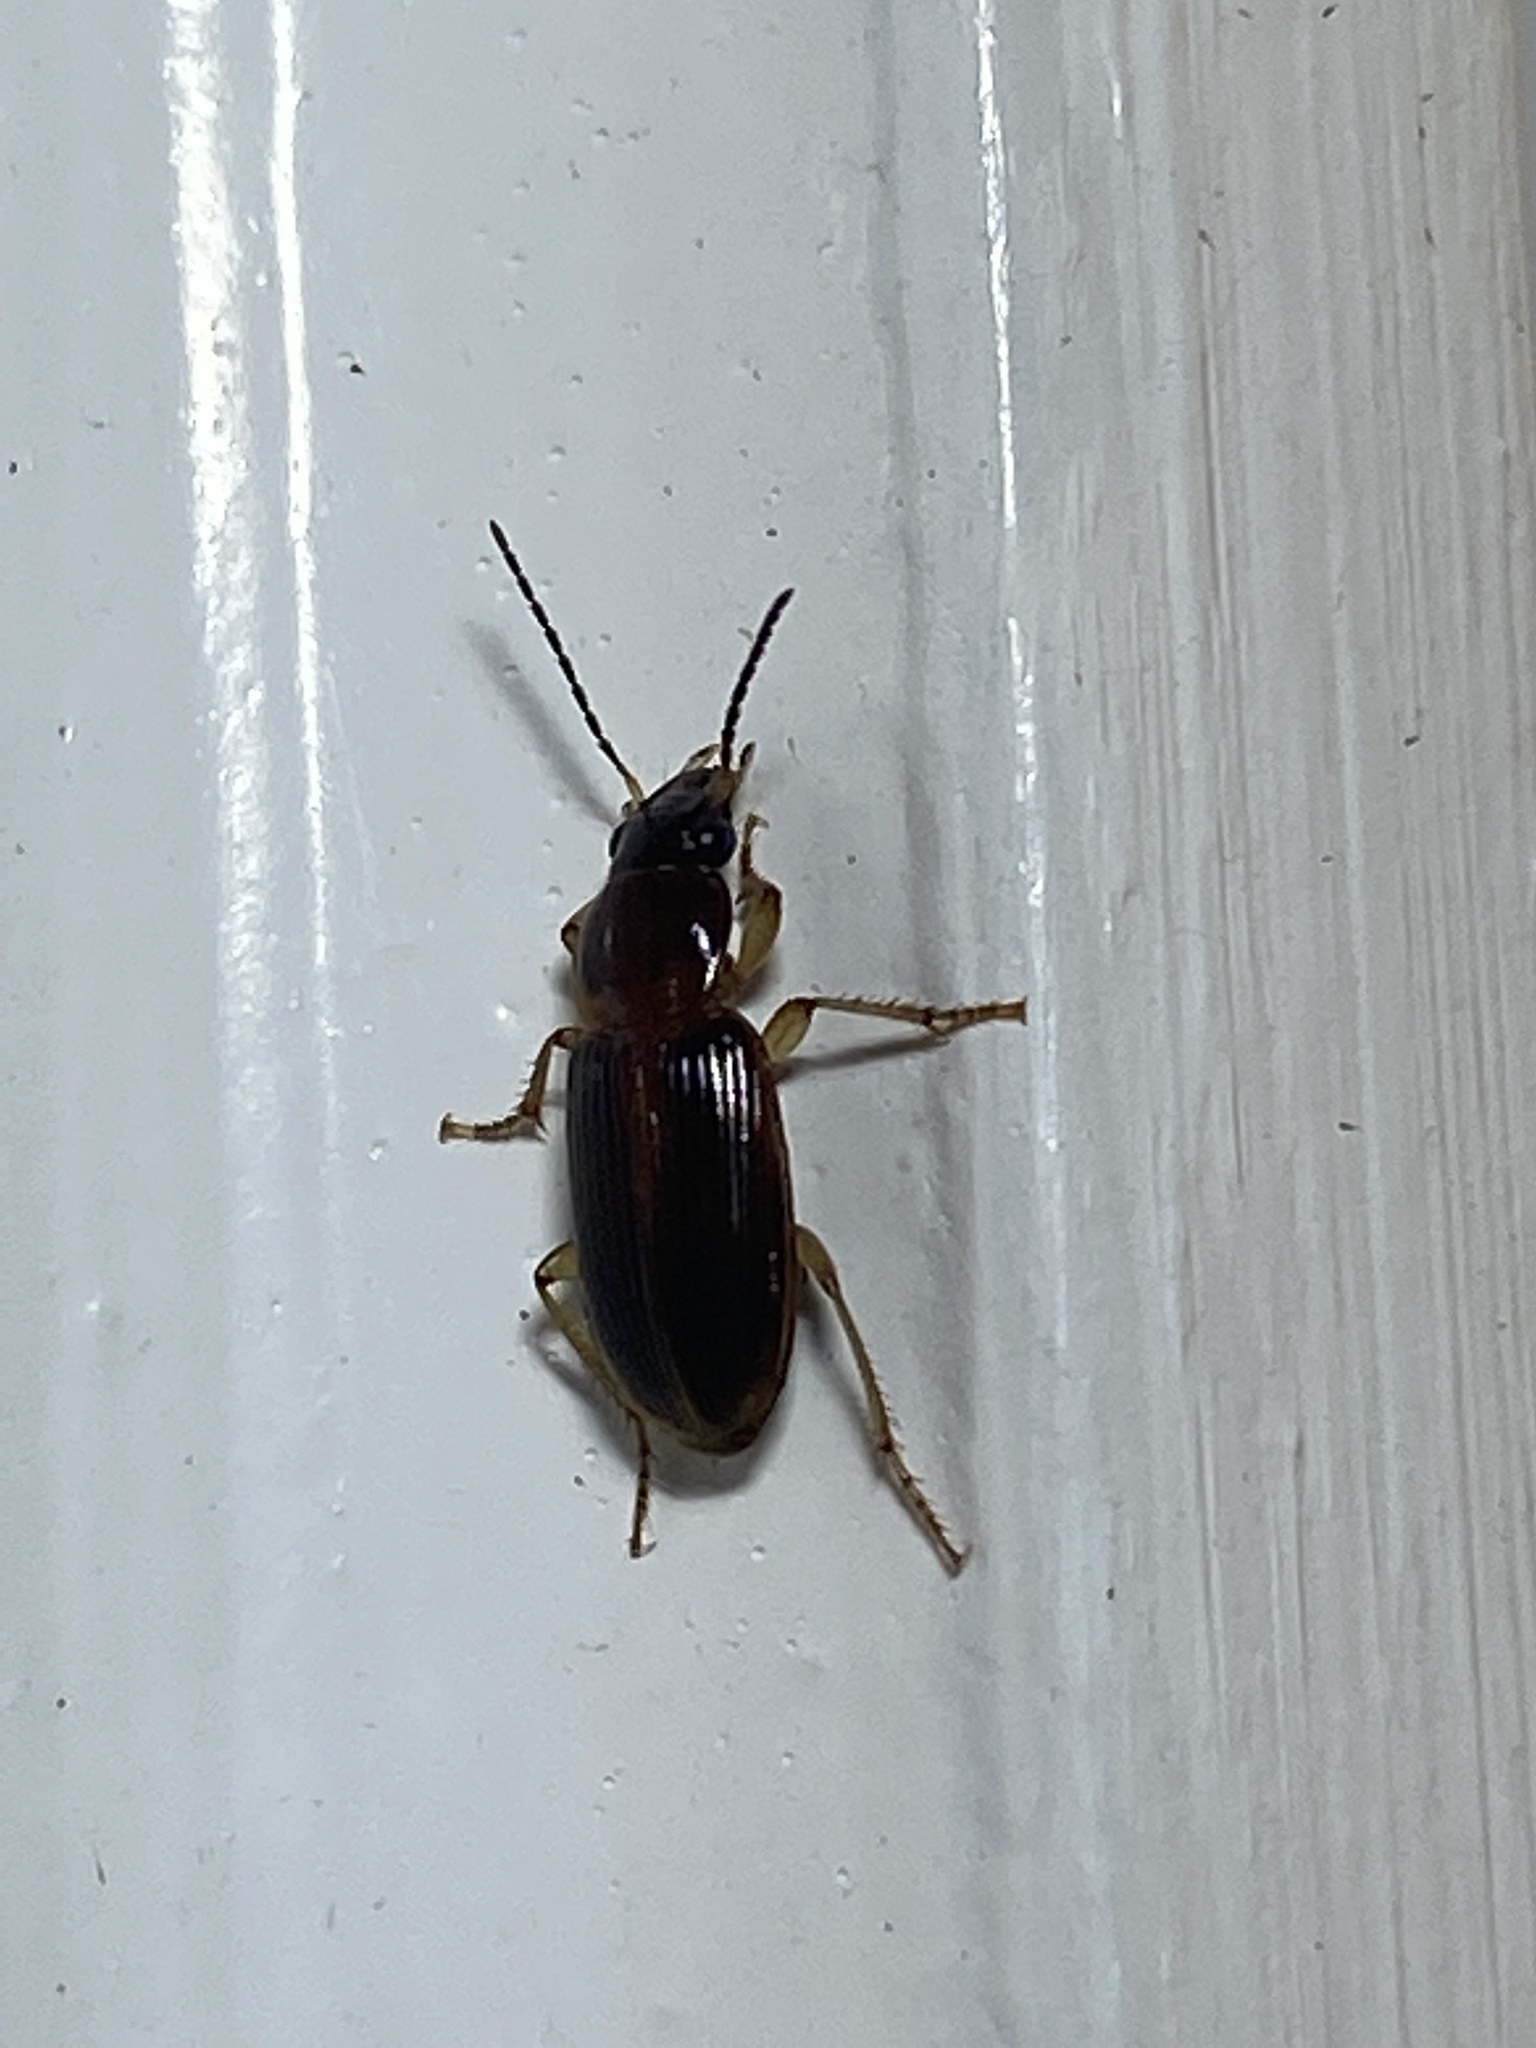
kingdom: Animalia
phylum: Arthropoda
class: Insecta
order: Coleoptera
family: Carabidae
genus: Stenolophus
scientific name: Stenolophus ochropezus
